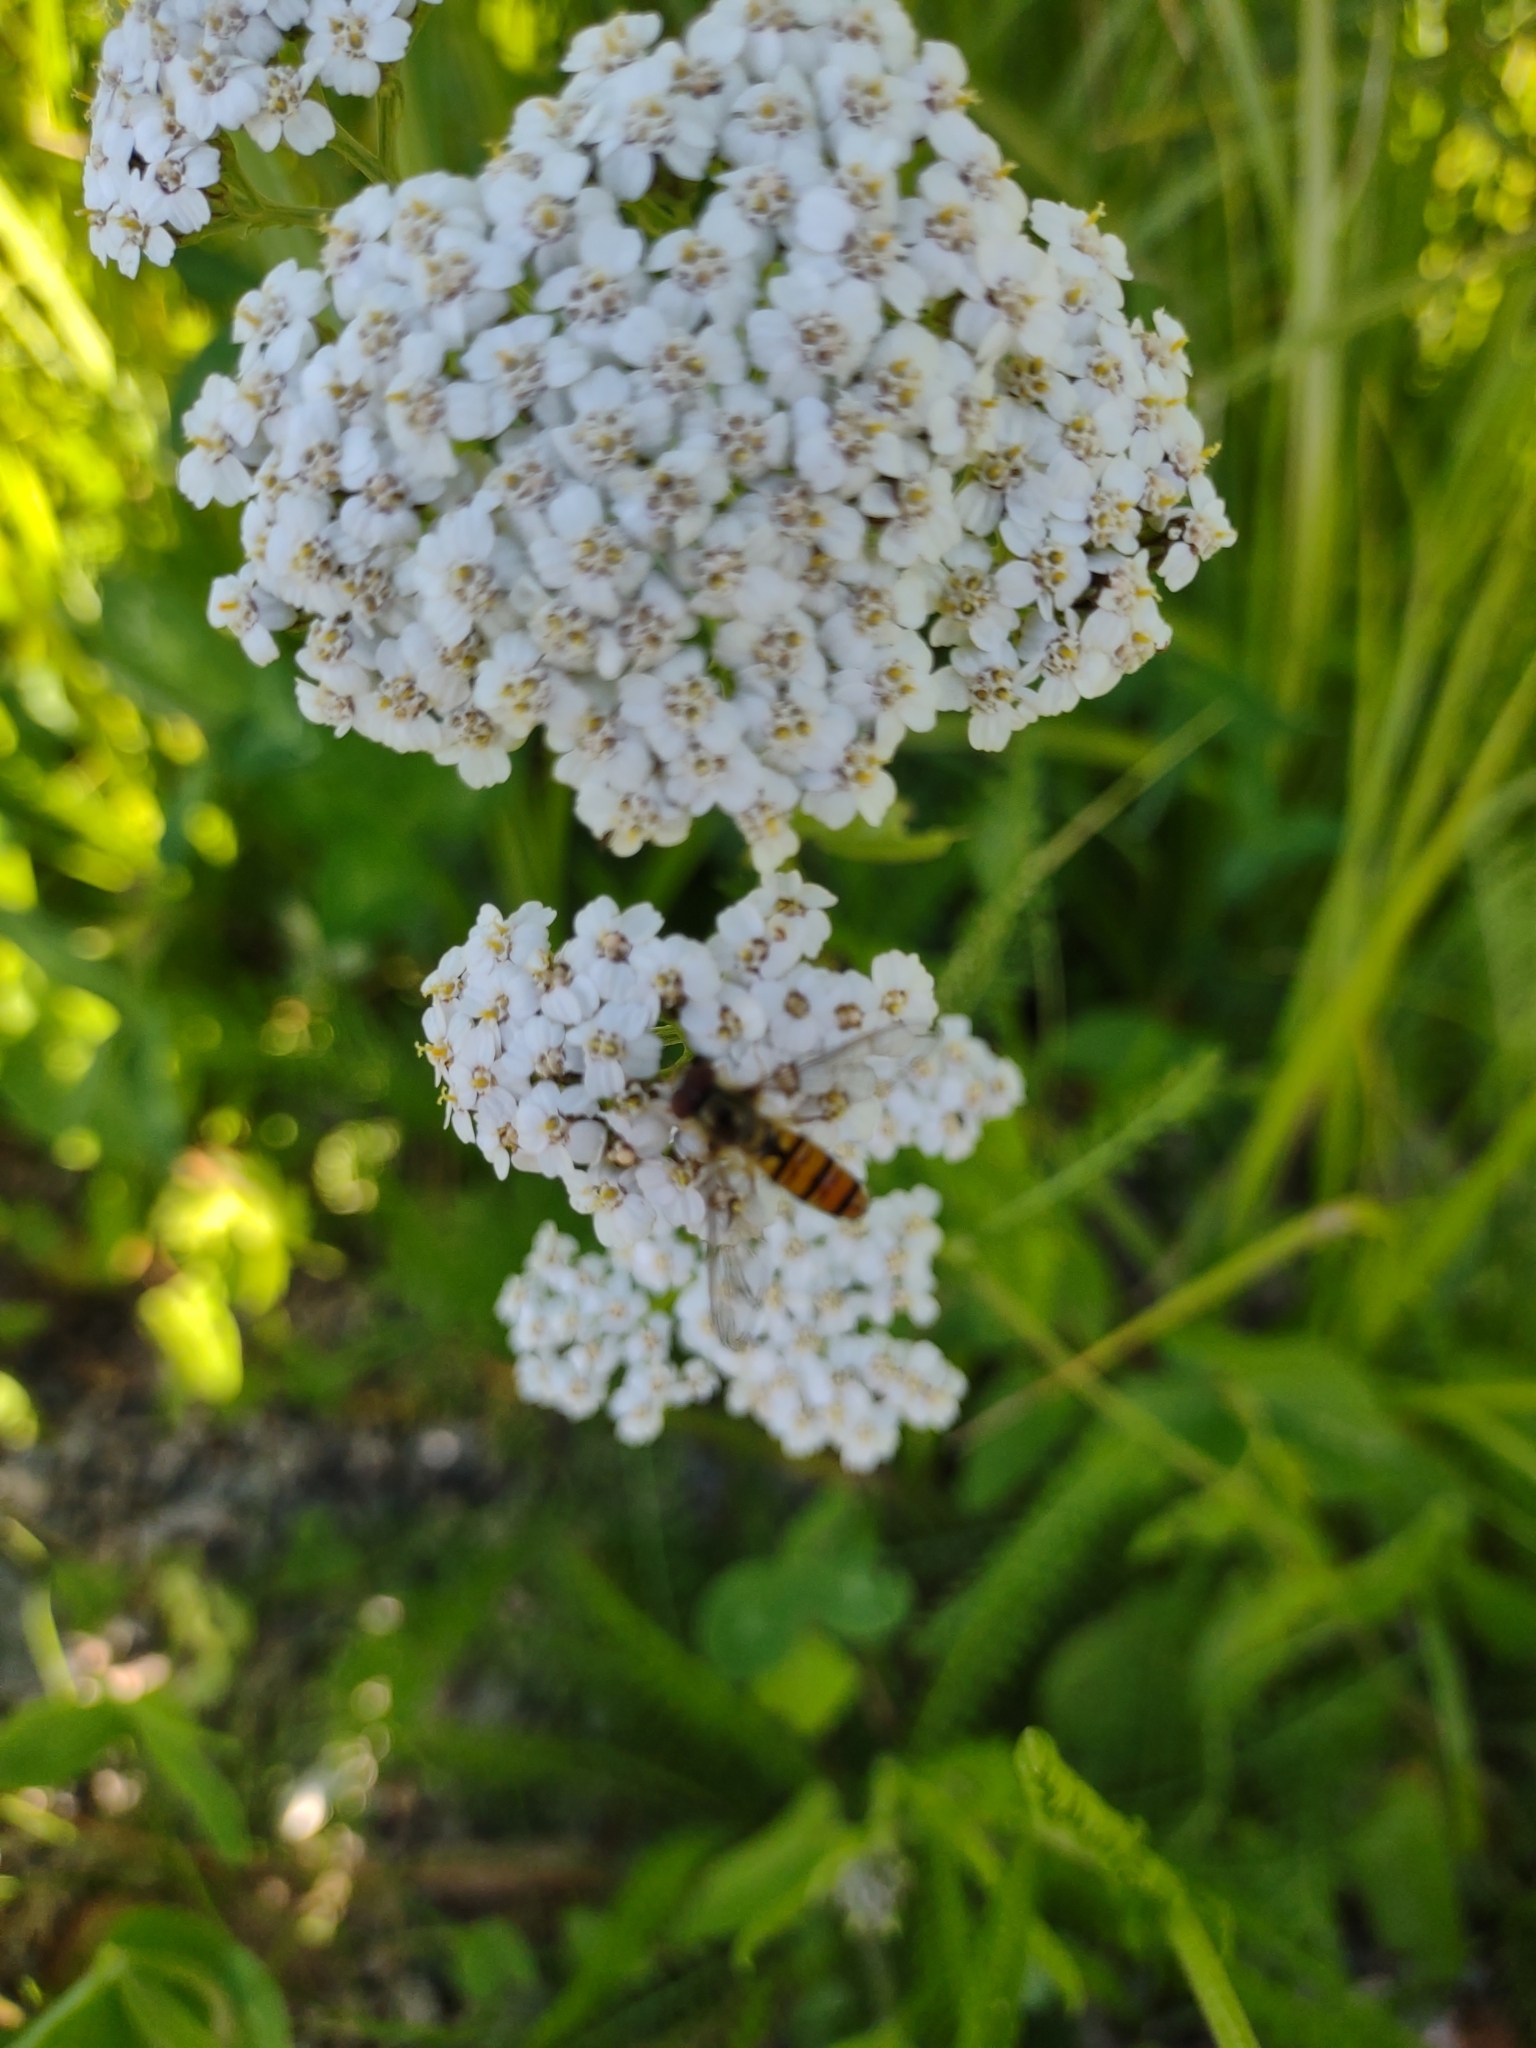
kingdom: Animalia
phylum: Arthropoda
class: Insecta
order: Diptera
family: Syrphidae
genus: Episyrphus
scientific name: Episyrphus balteatus
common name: Marmalade hoverfly
